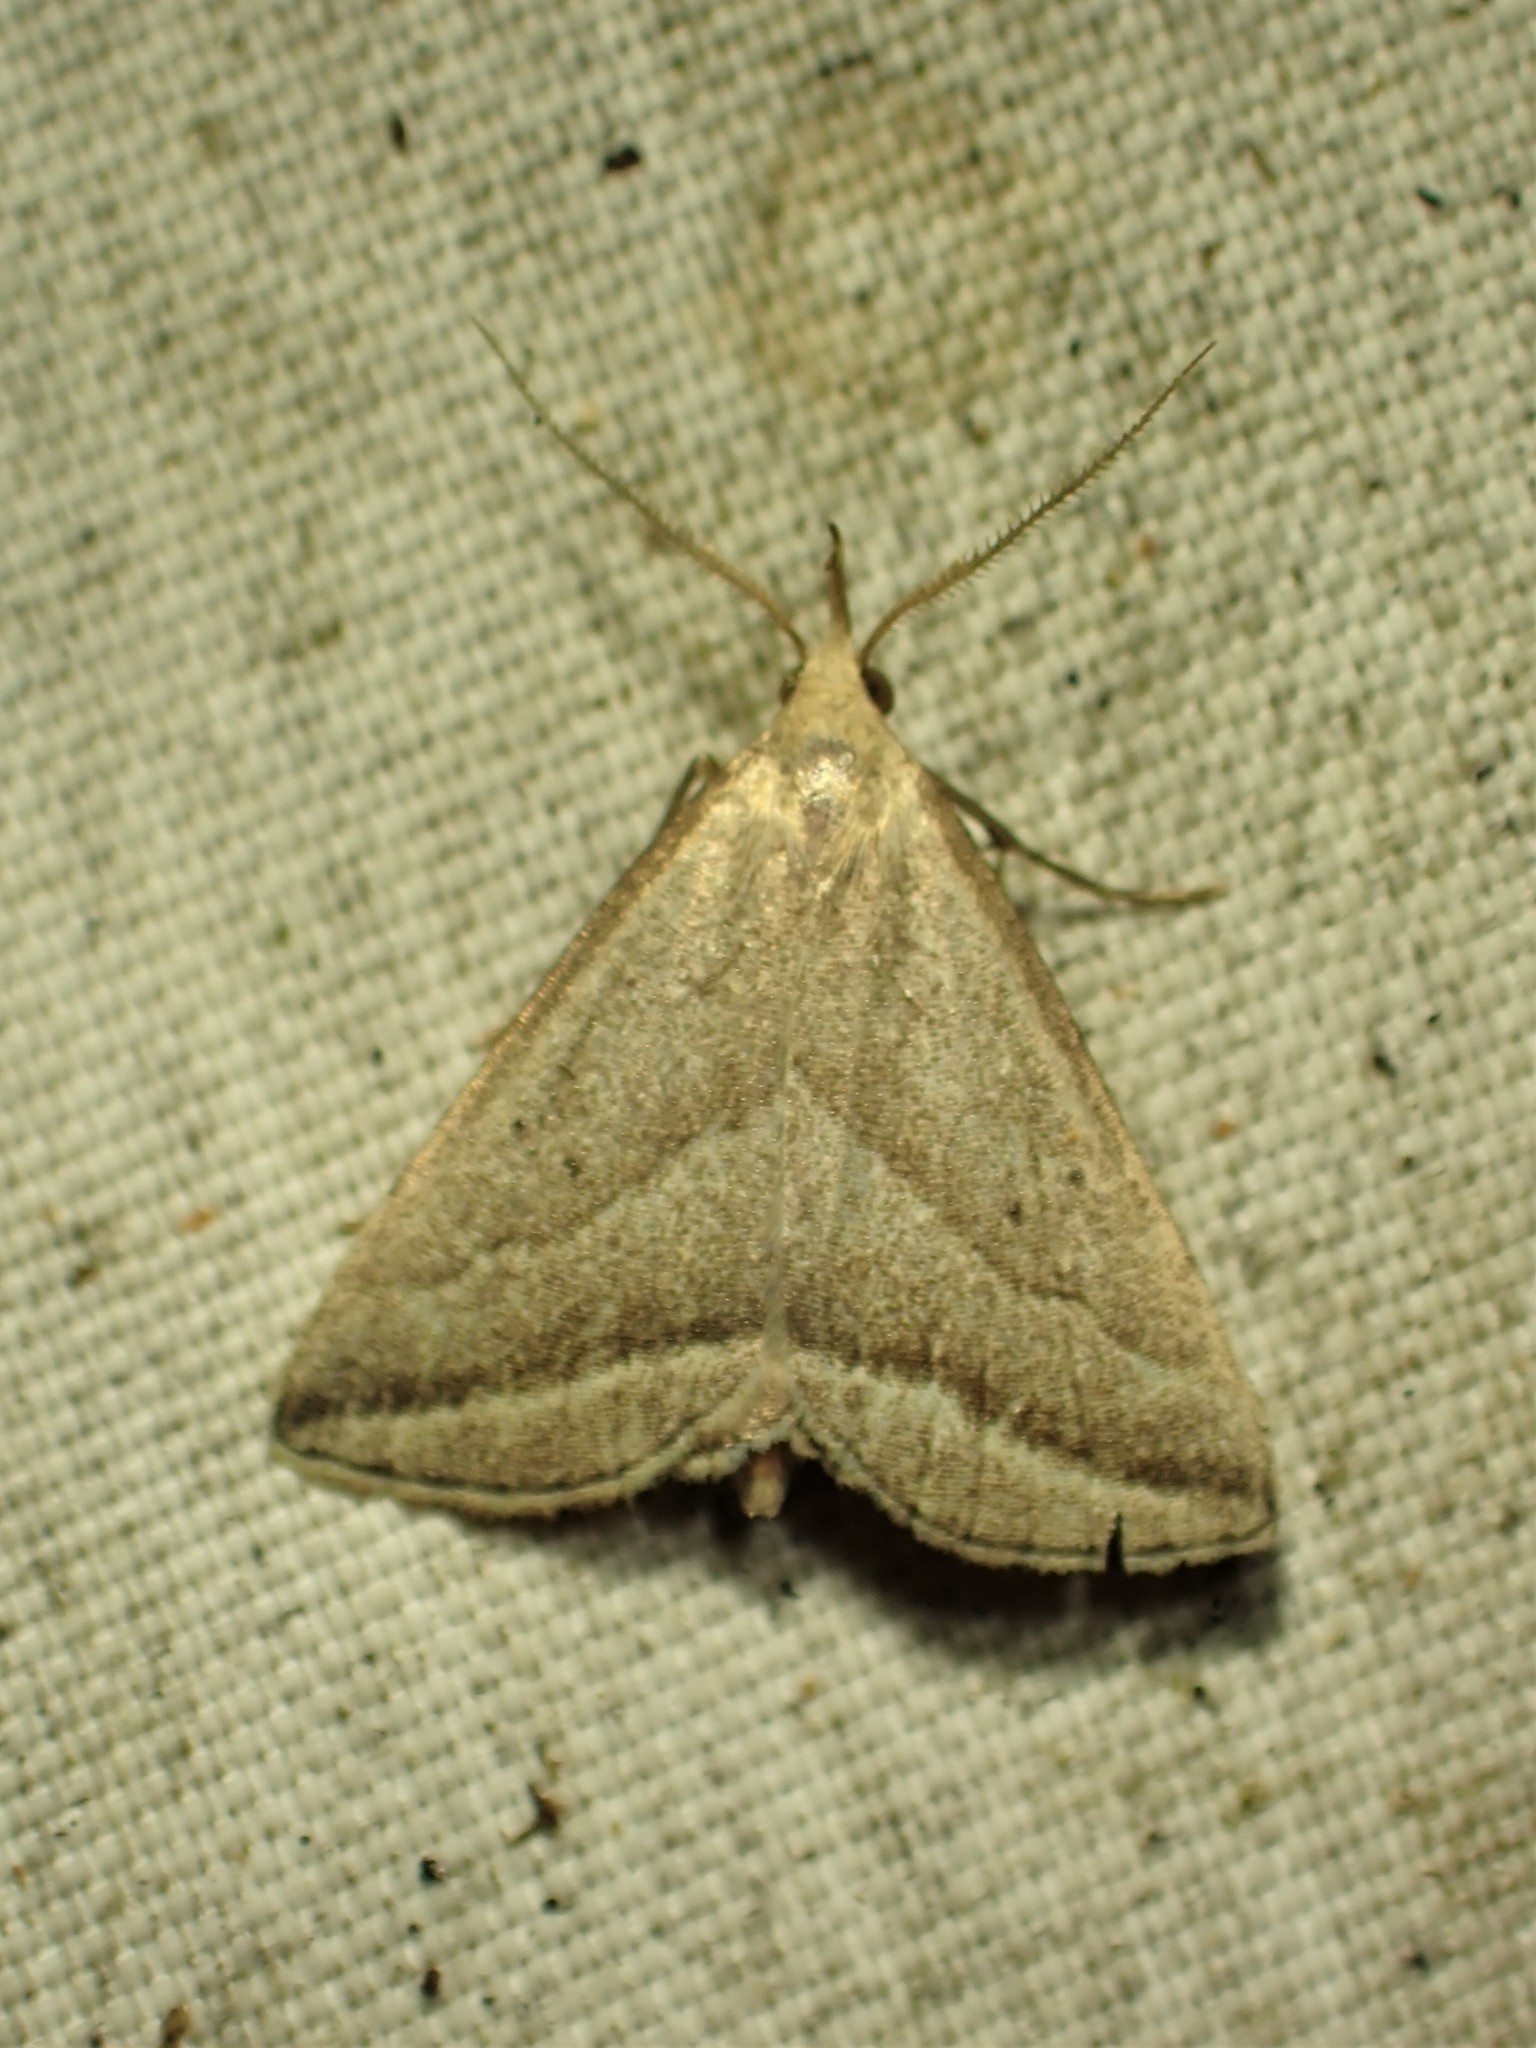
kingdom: Animalia
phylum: Arthropoda
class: Insecta
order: Lepidoptera
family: Erebidae
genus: Macrochilo
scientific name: Macrochilo absorptalis
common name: Slant-lined owlet
